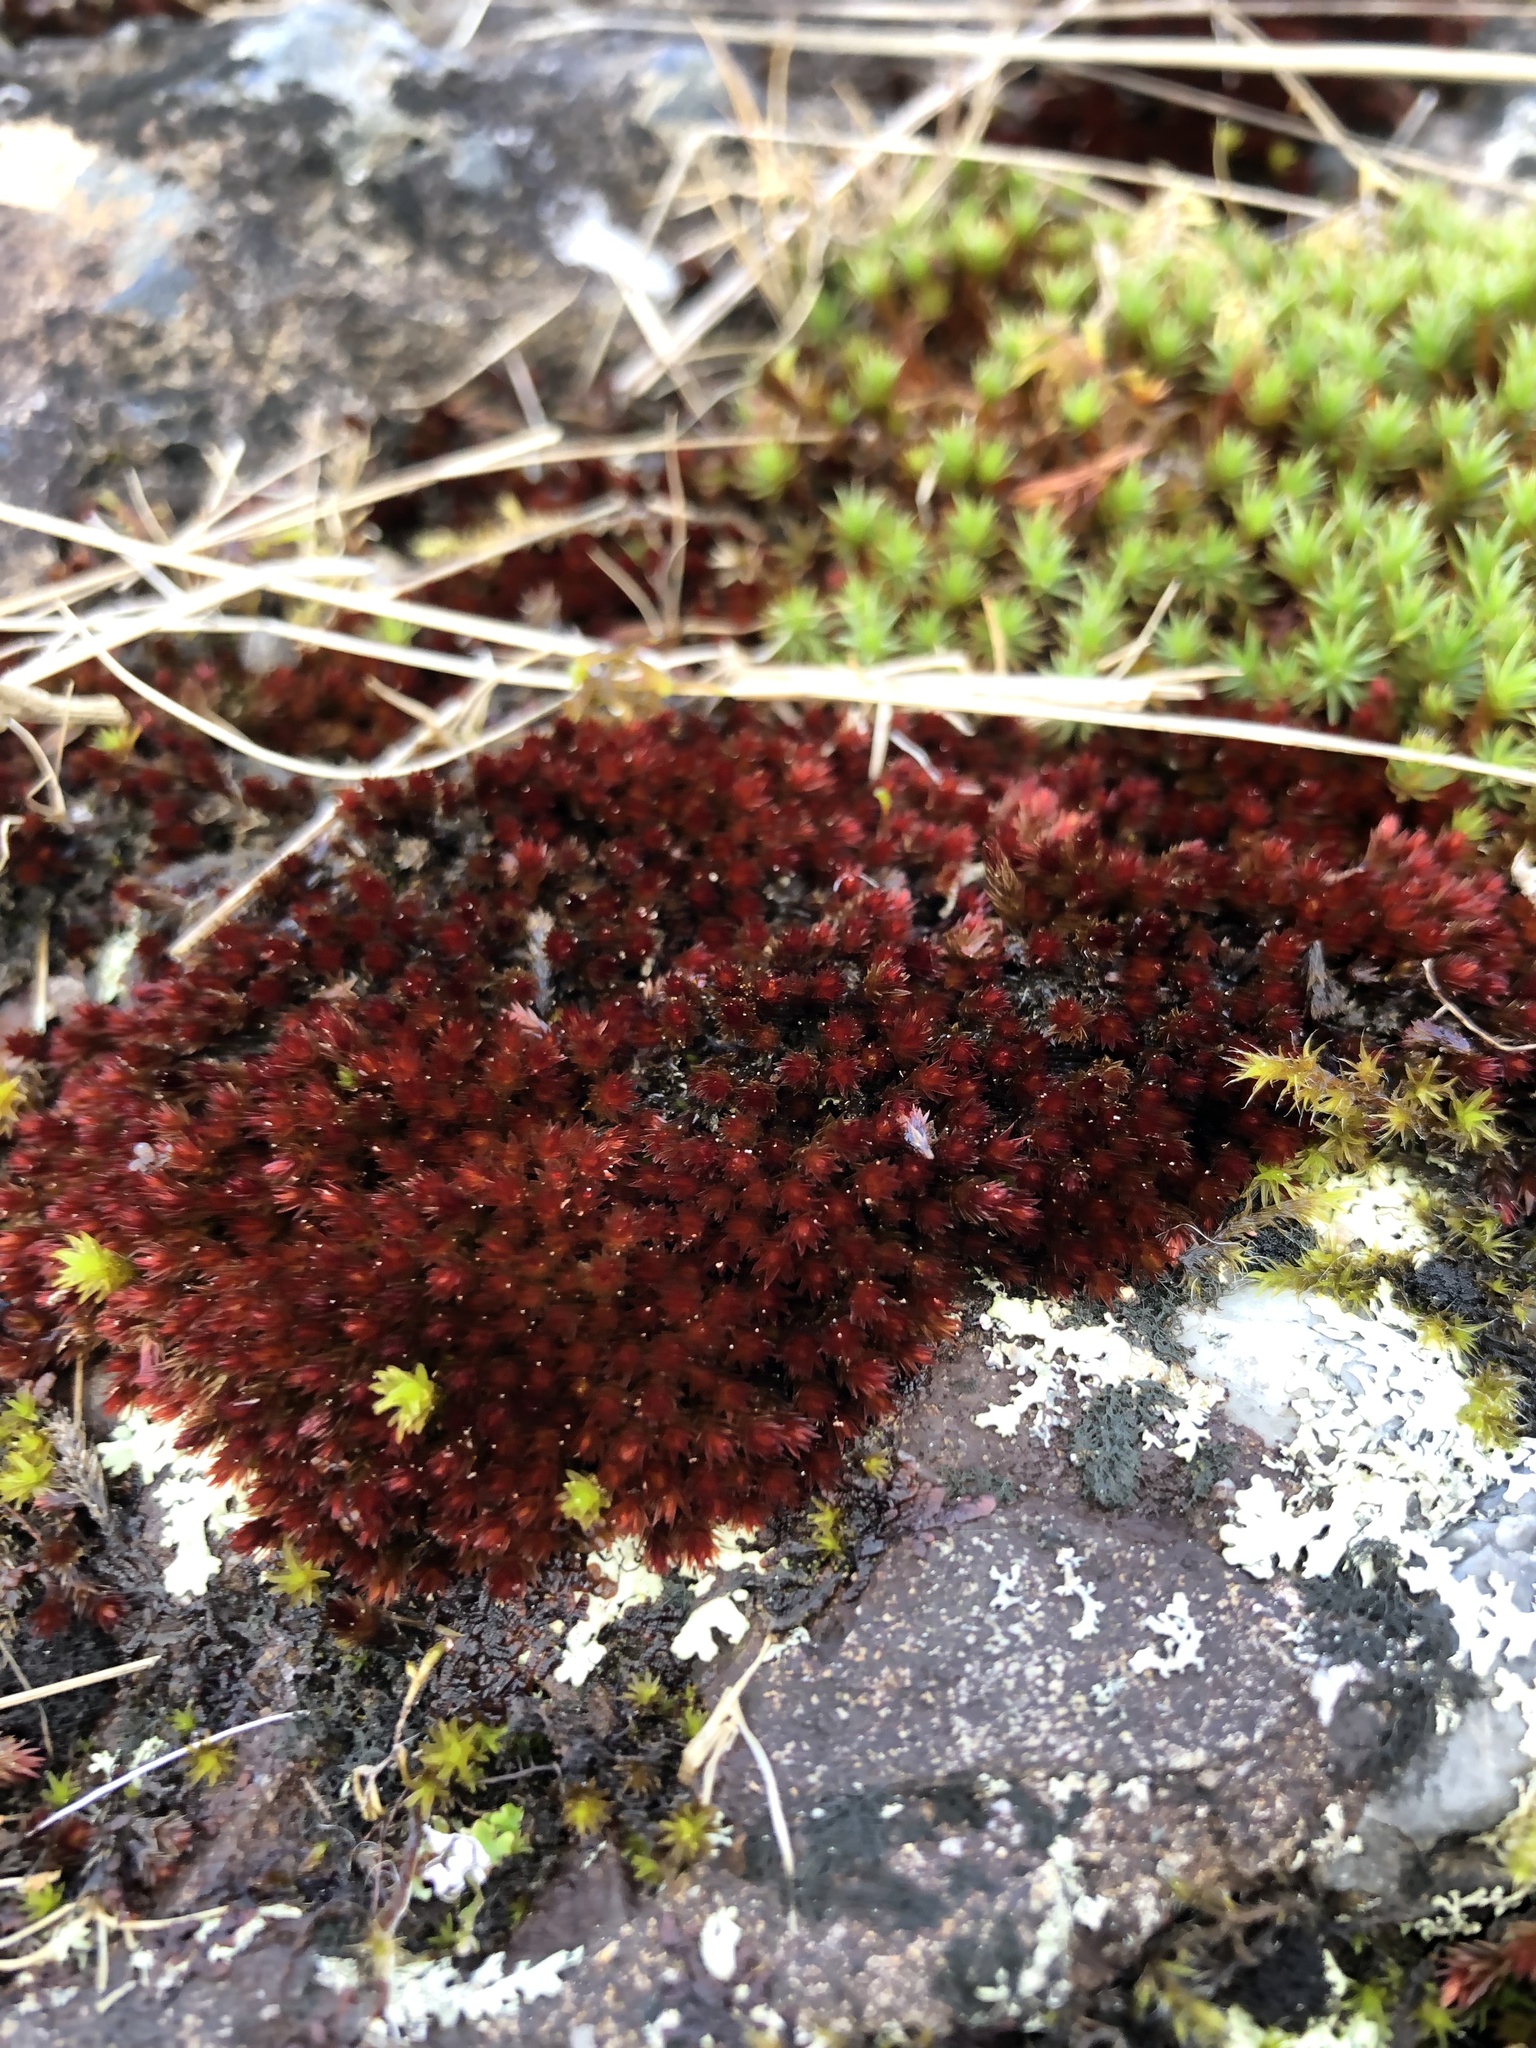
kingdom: Plantae
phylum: Bryophyta
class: Bryopsida
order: Bryales
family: Bryaceae
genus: Imbribryum
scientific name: Imbribryum alpinum
